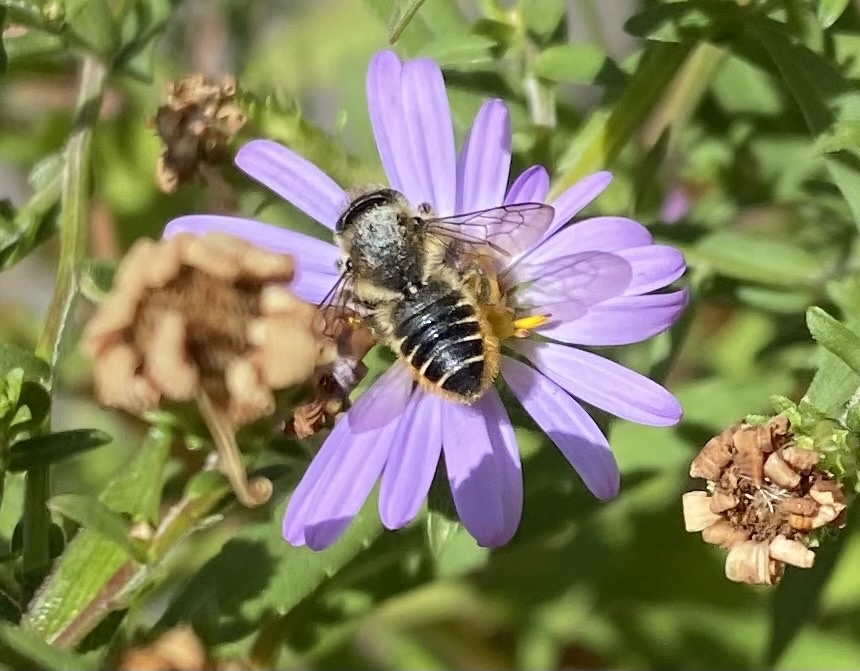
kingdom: Animalia
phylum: Arthropoda
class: Insecta
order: Hymenoptera
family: Megachilidae
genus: Megachile
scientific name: Megachile centuncularis
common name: Patchwork leafcutter bee
